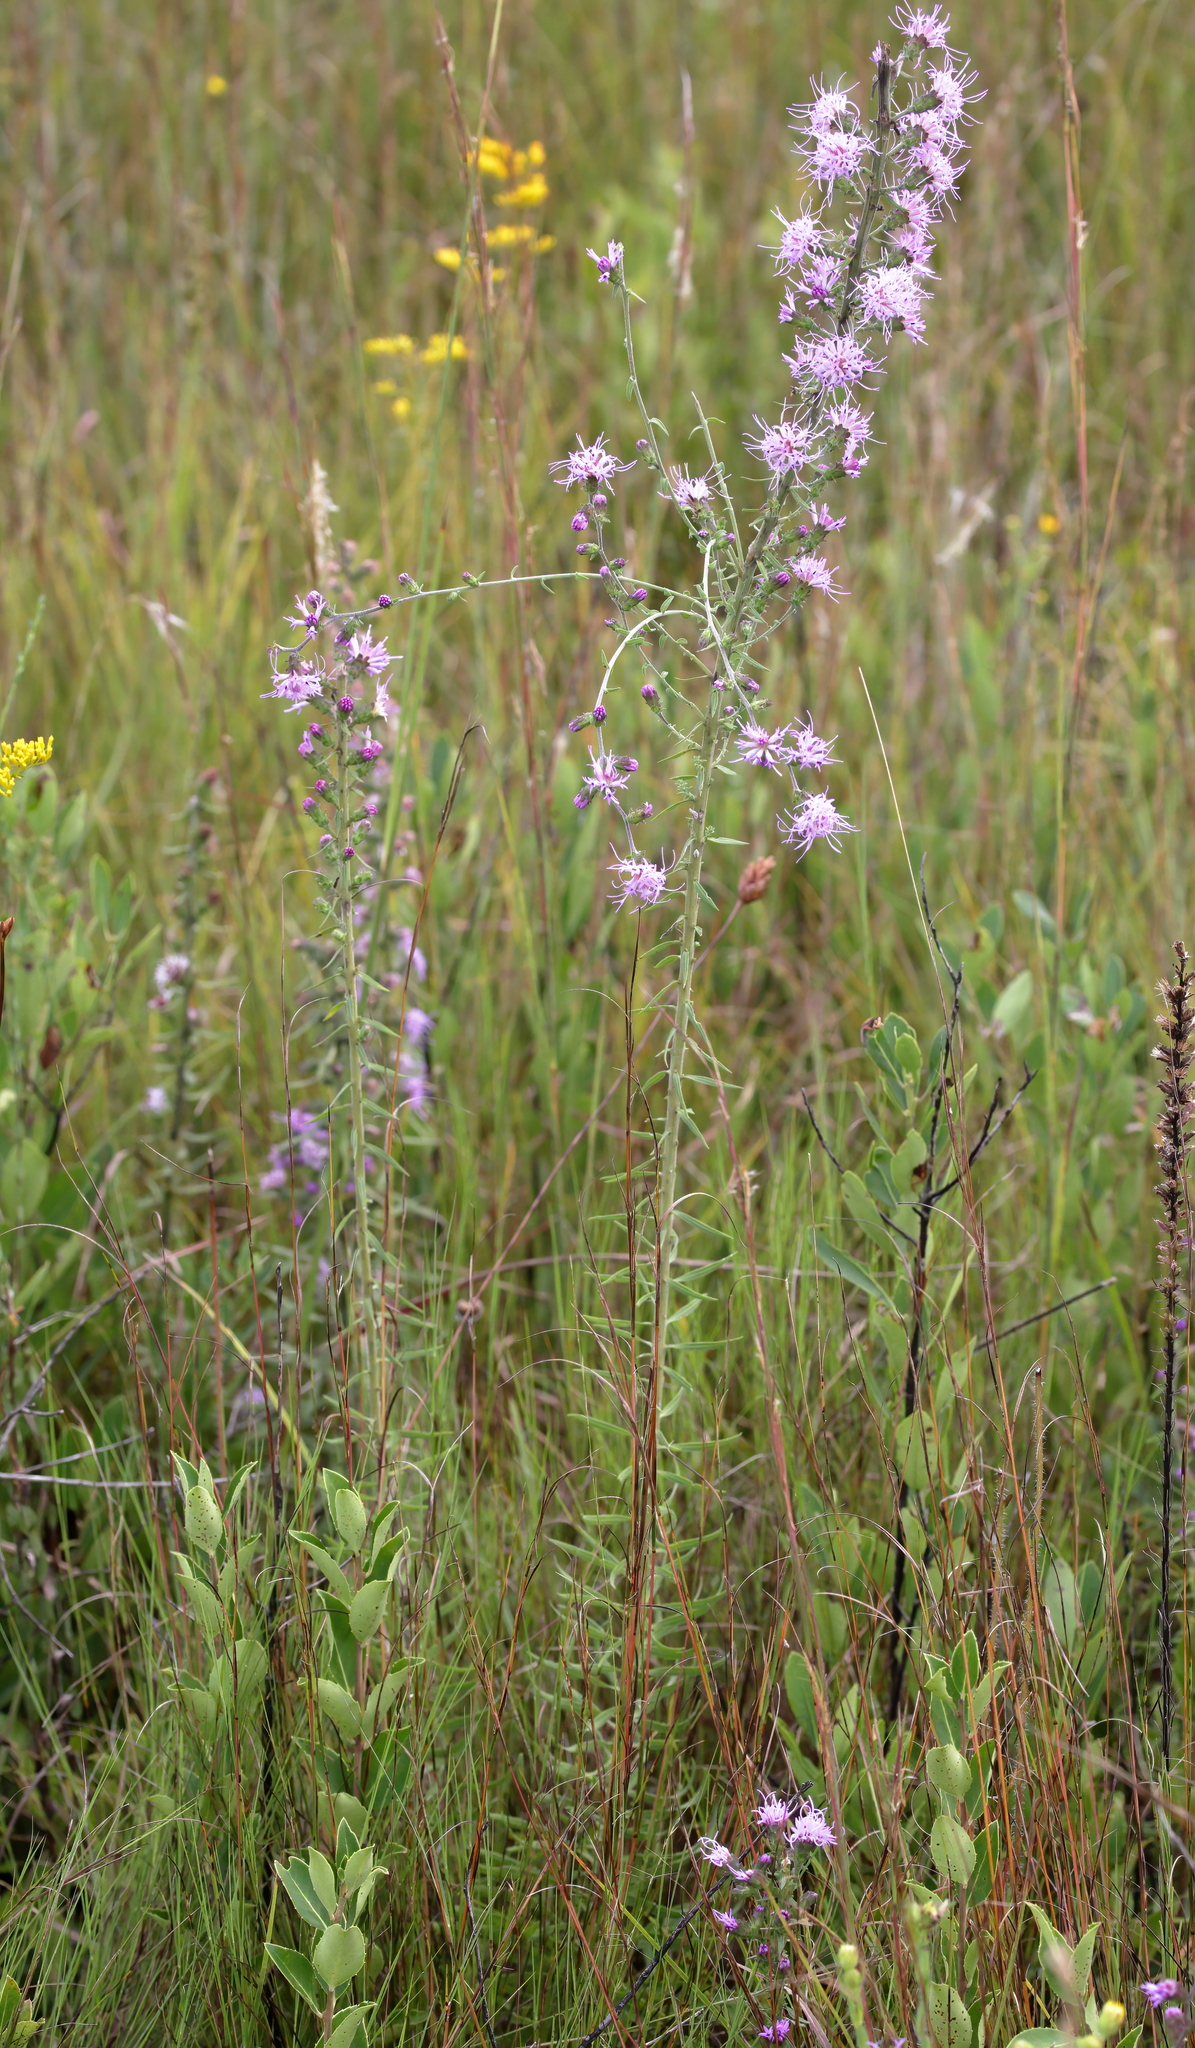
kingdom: Plantae
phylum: Tracheophyta
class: Magnoliopsida
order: Asterales
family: Asteraceae
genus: Liatris
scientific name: Liatris squarrulosa
